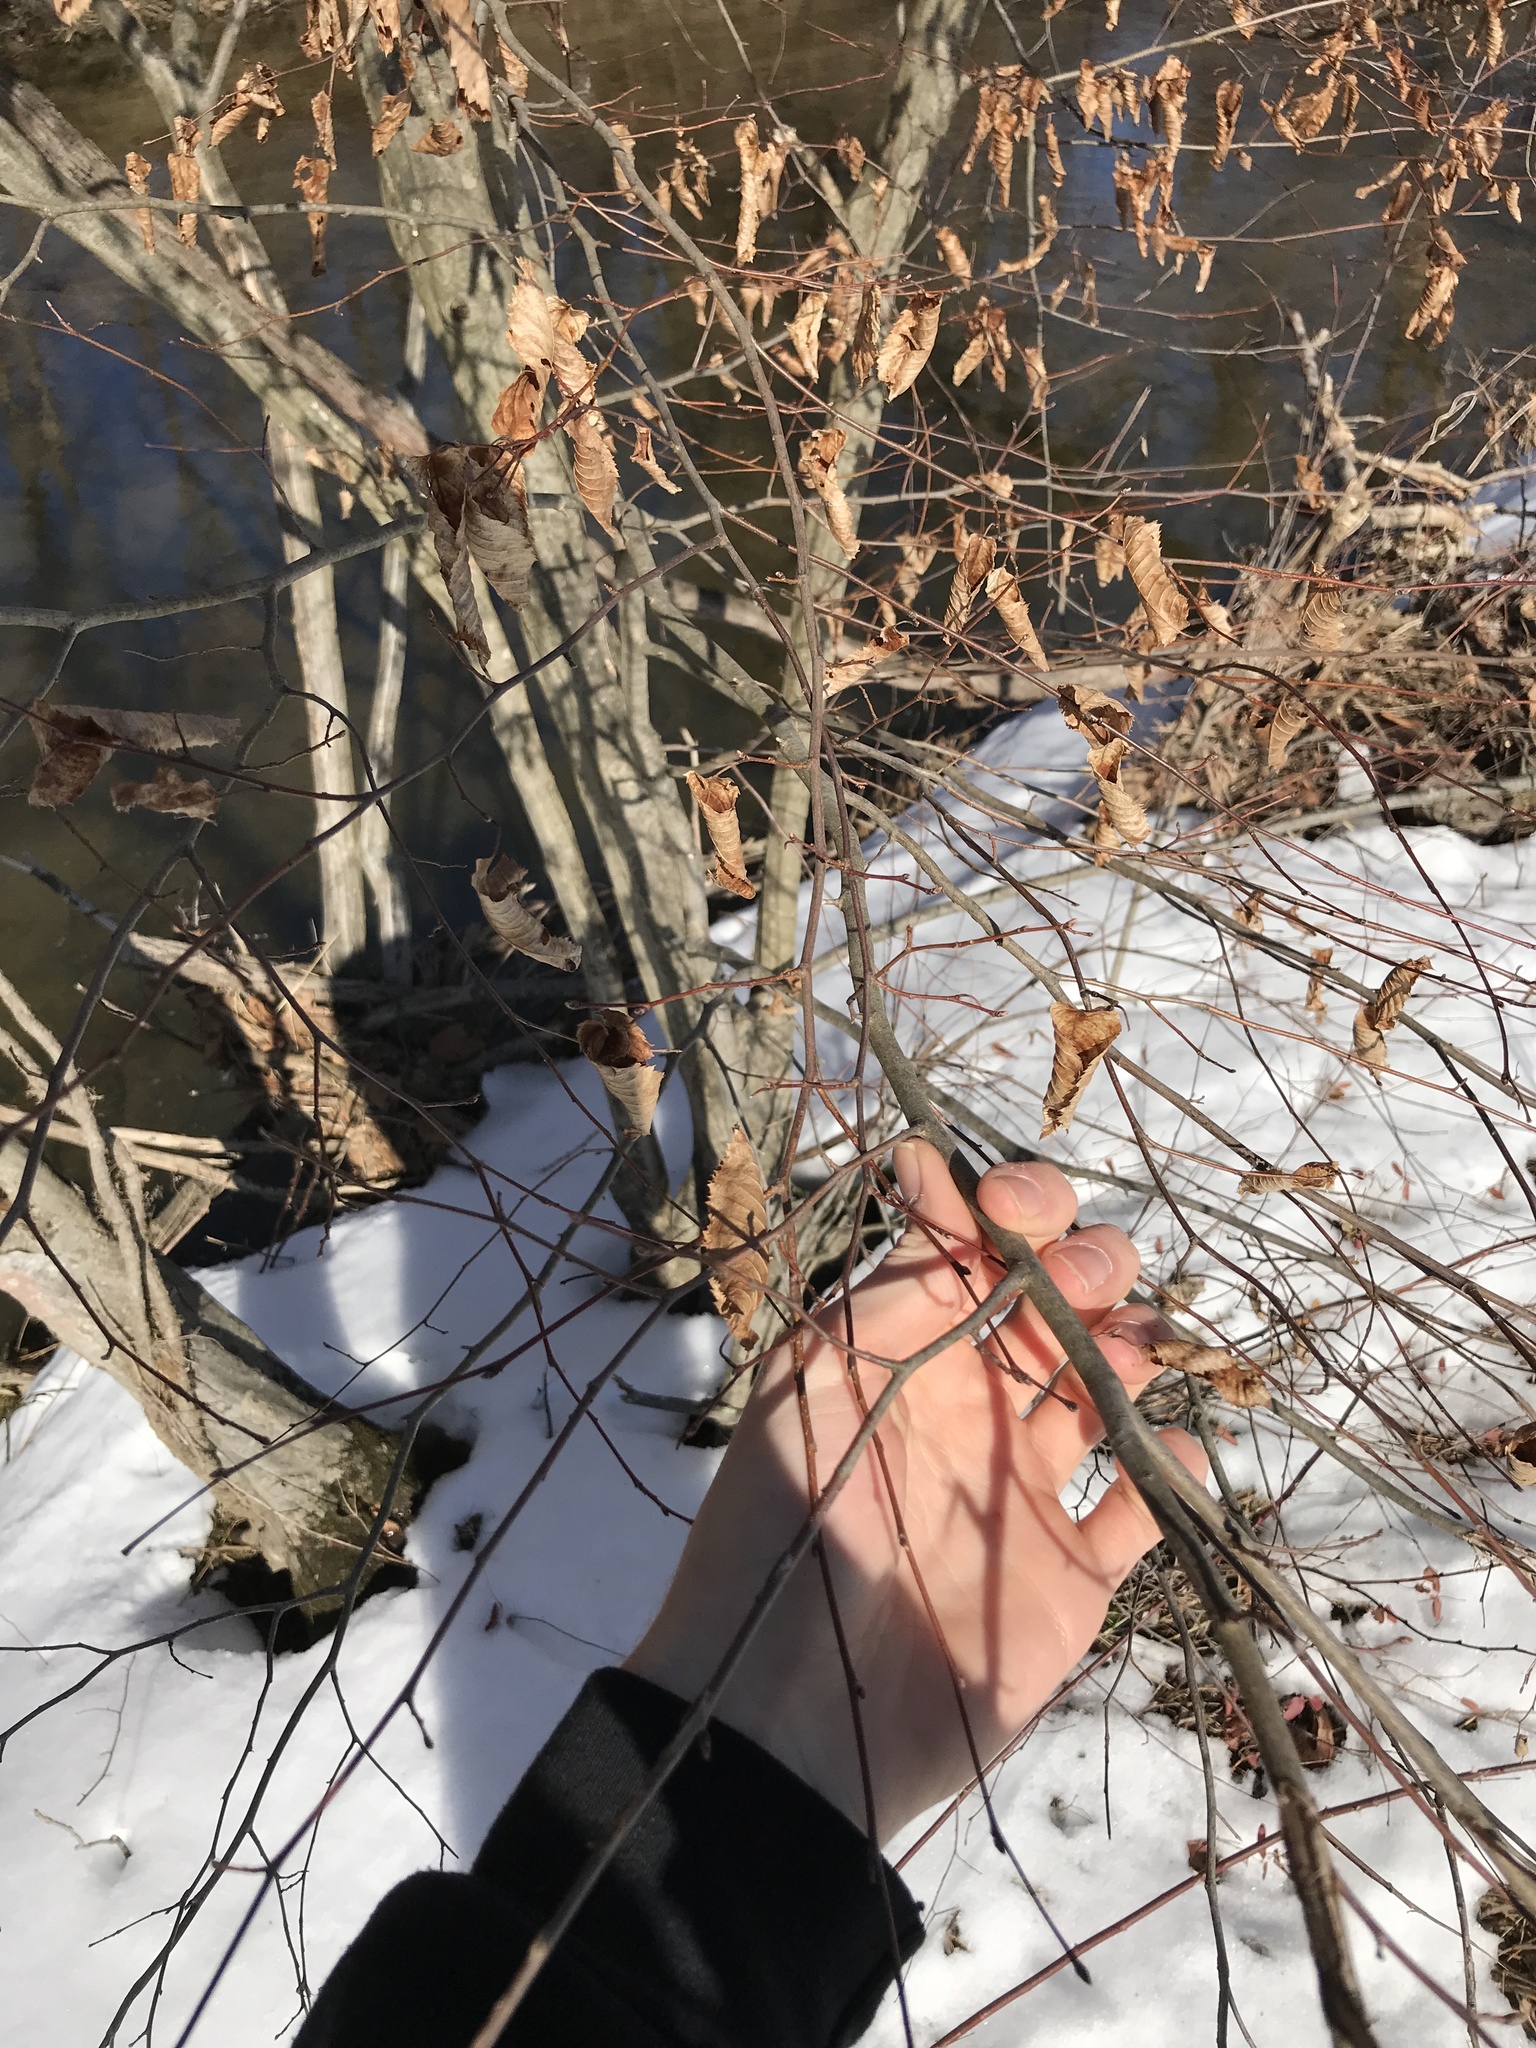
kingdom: Plantae
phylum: Tracheophyta
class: Magnoliopsida
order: Fagales
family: Betulaceae
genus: Carpinus
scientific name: Carpinus caroliniana
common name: American hornbeam
